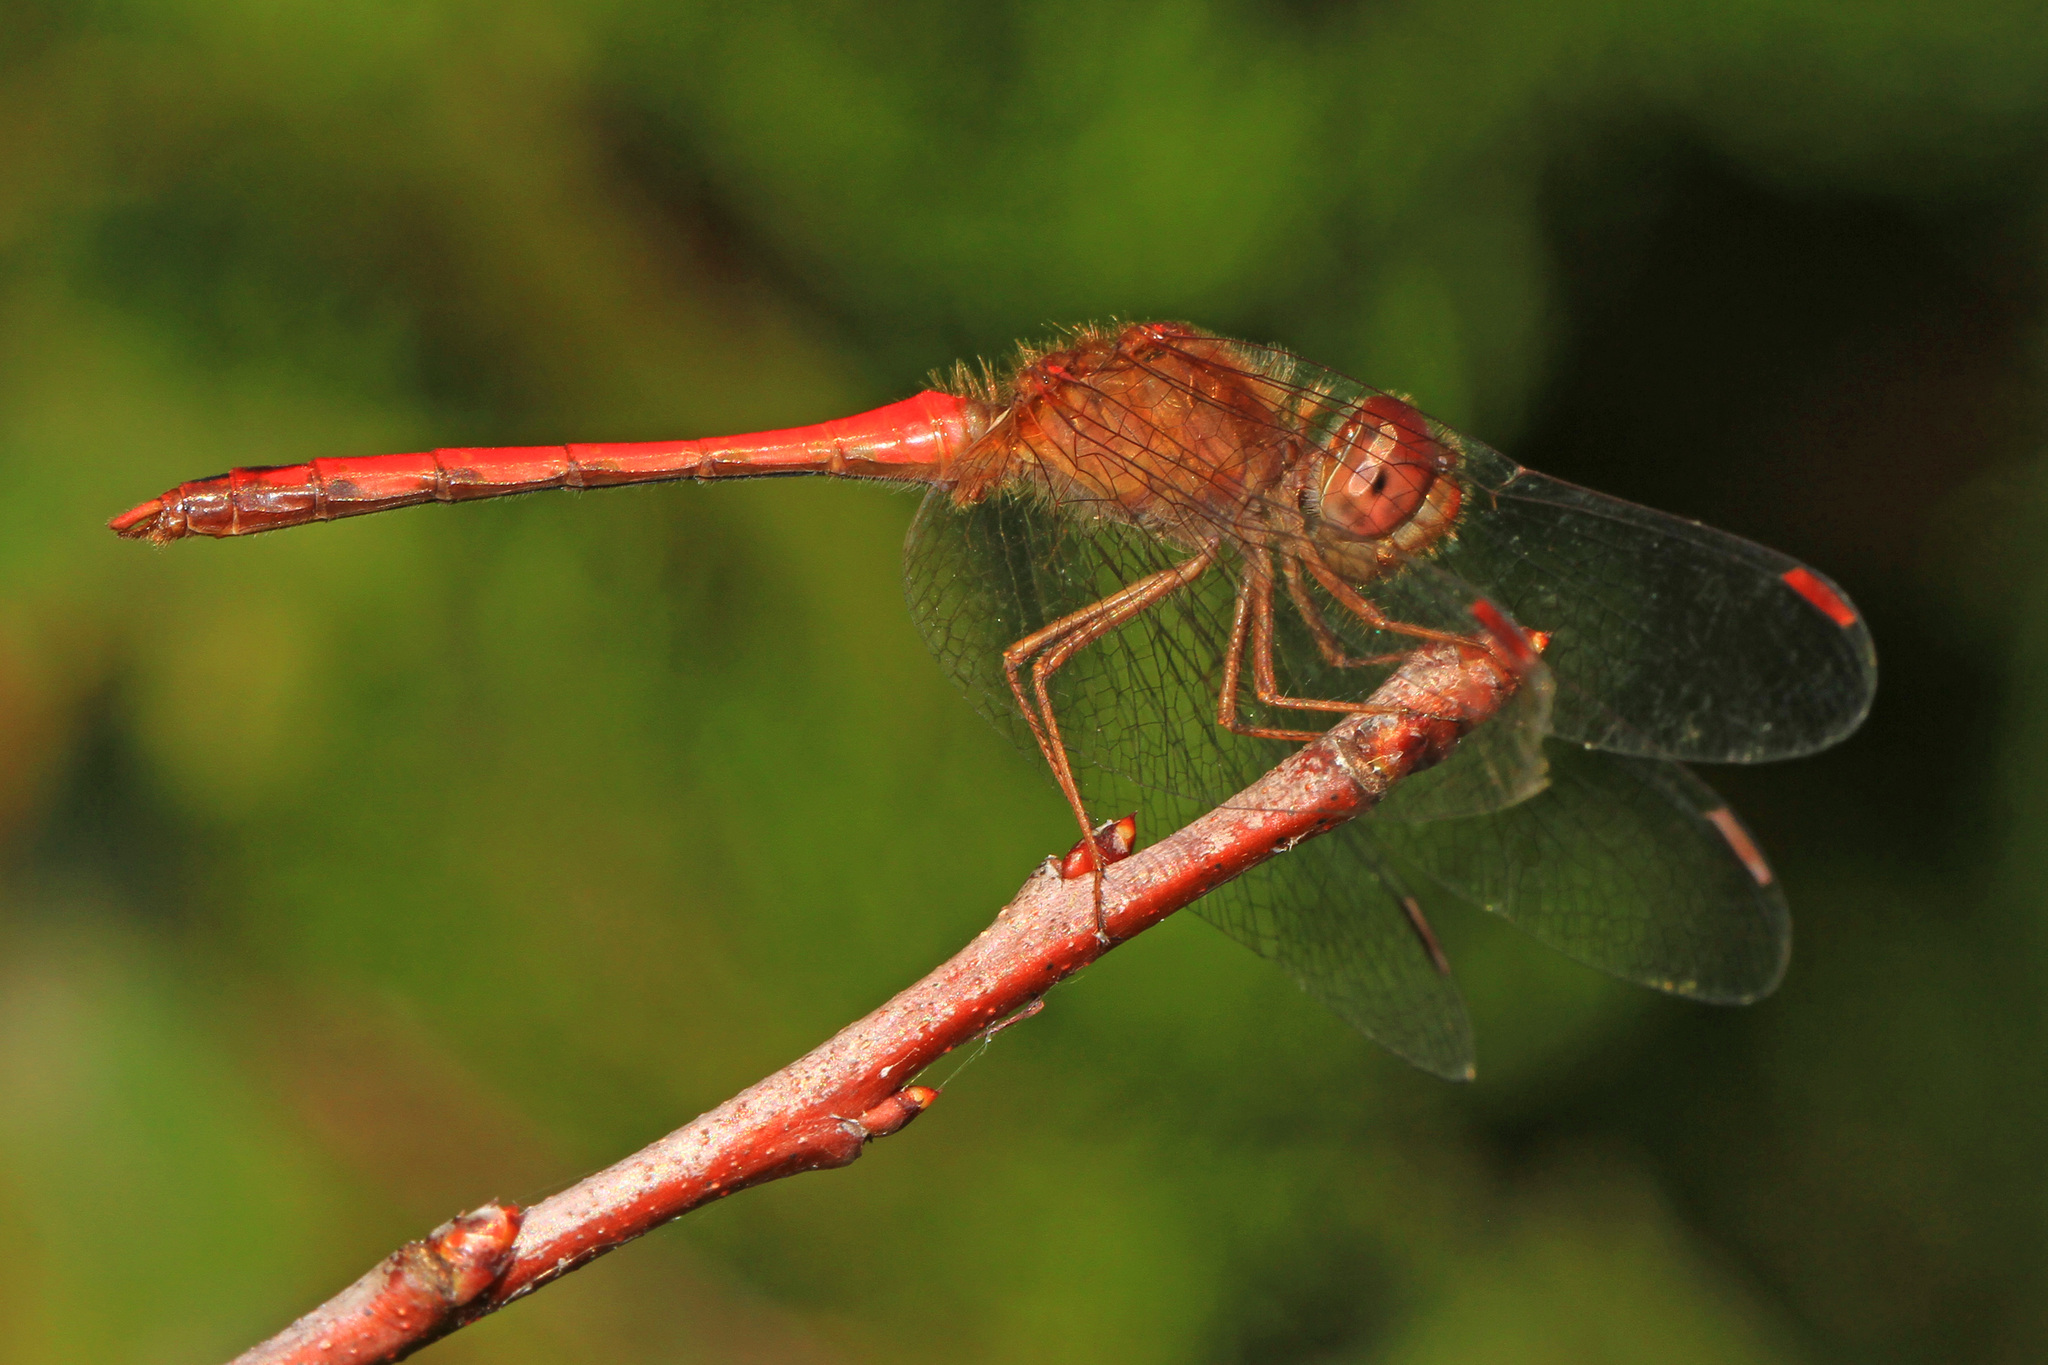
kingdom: Animalia
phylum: Arthropoda
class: Insecta
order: Odonata
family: Libellulidae
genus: Sympetrum
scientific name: Sympetrum vicinum
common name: Autumn meadowhawk
